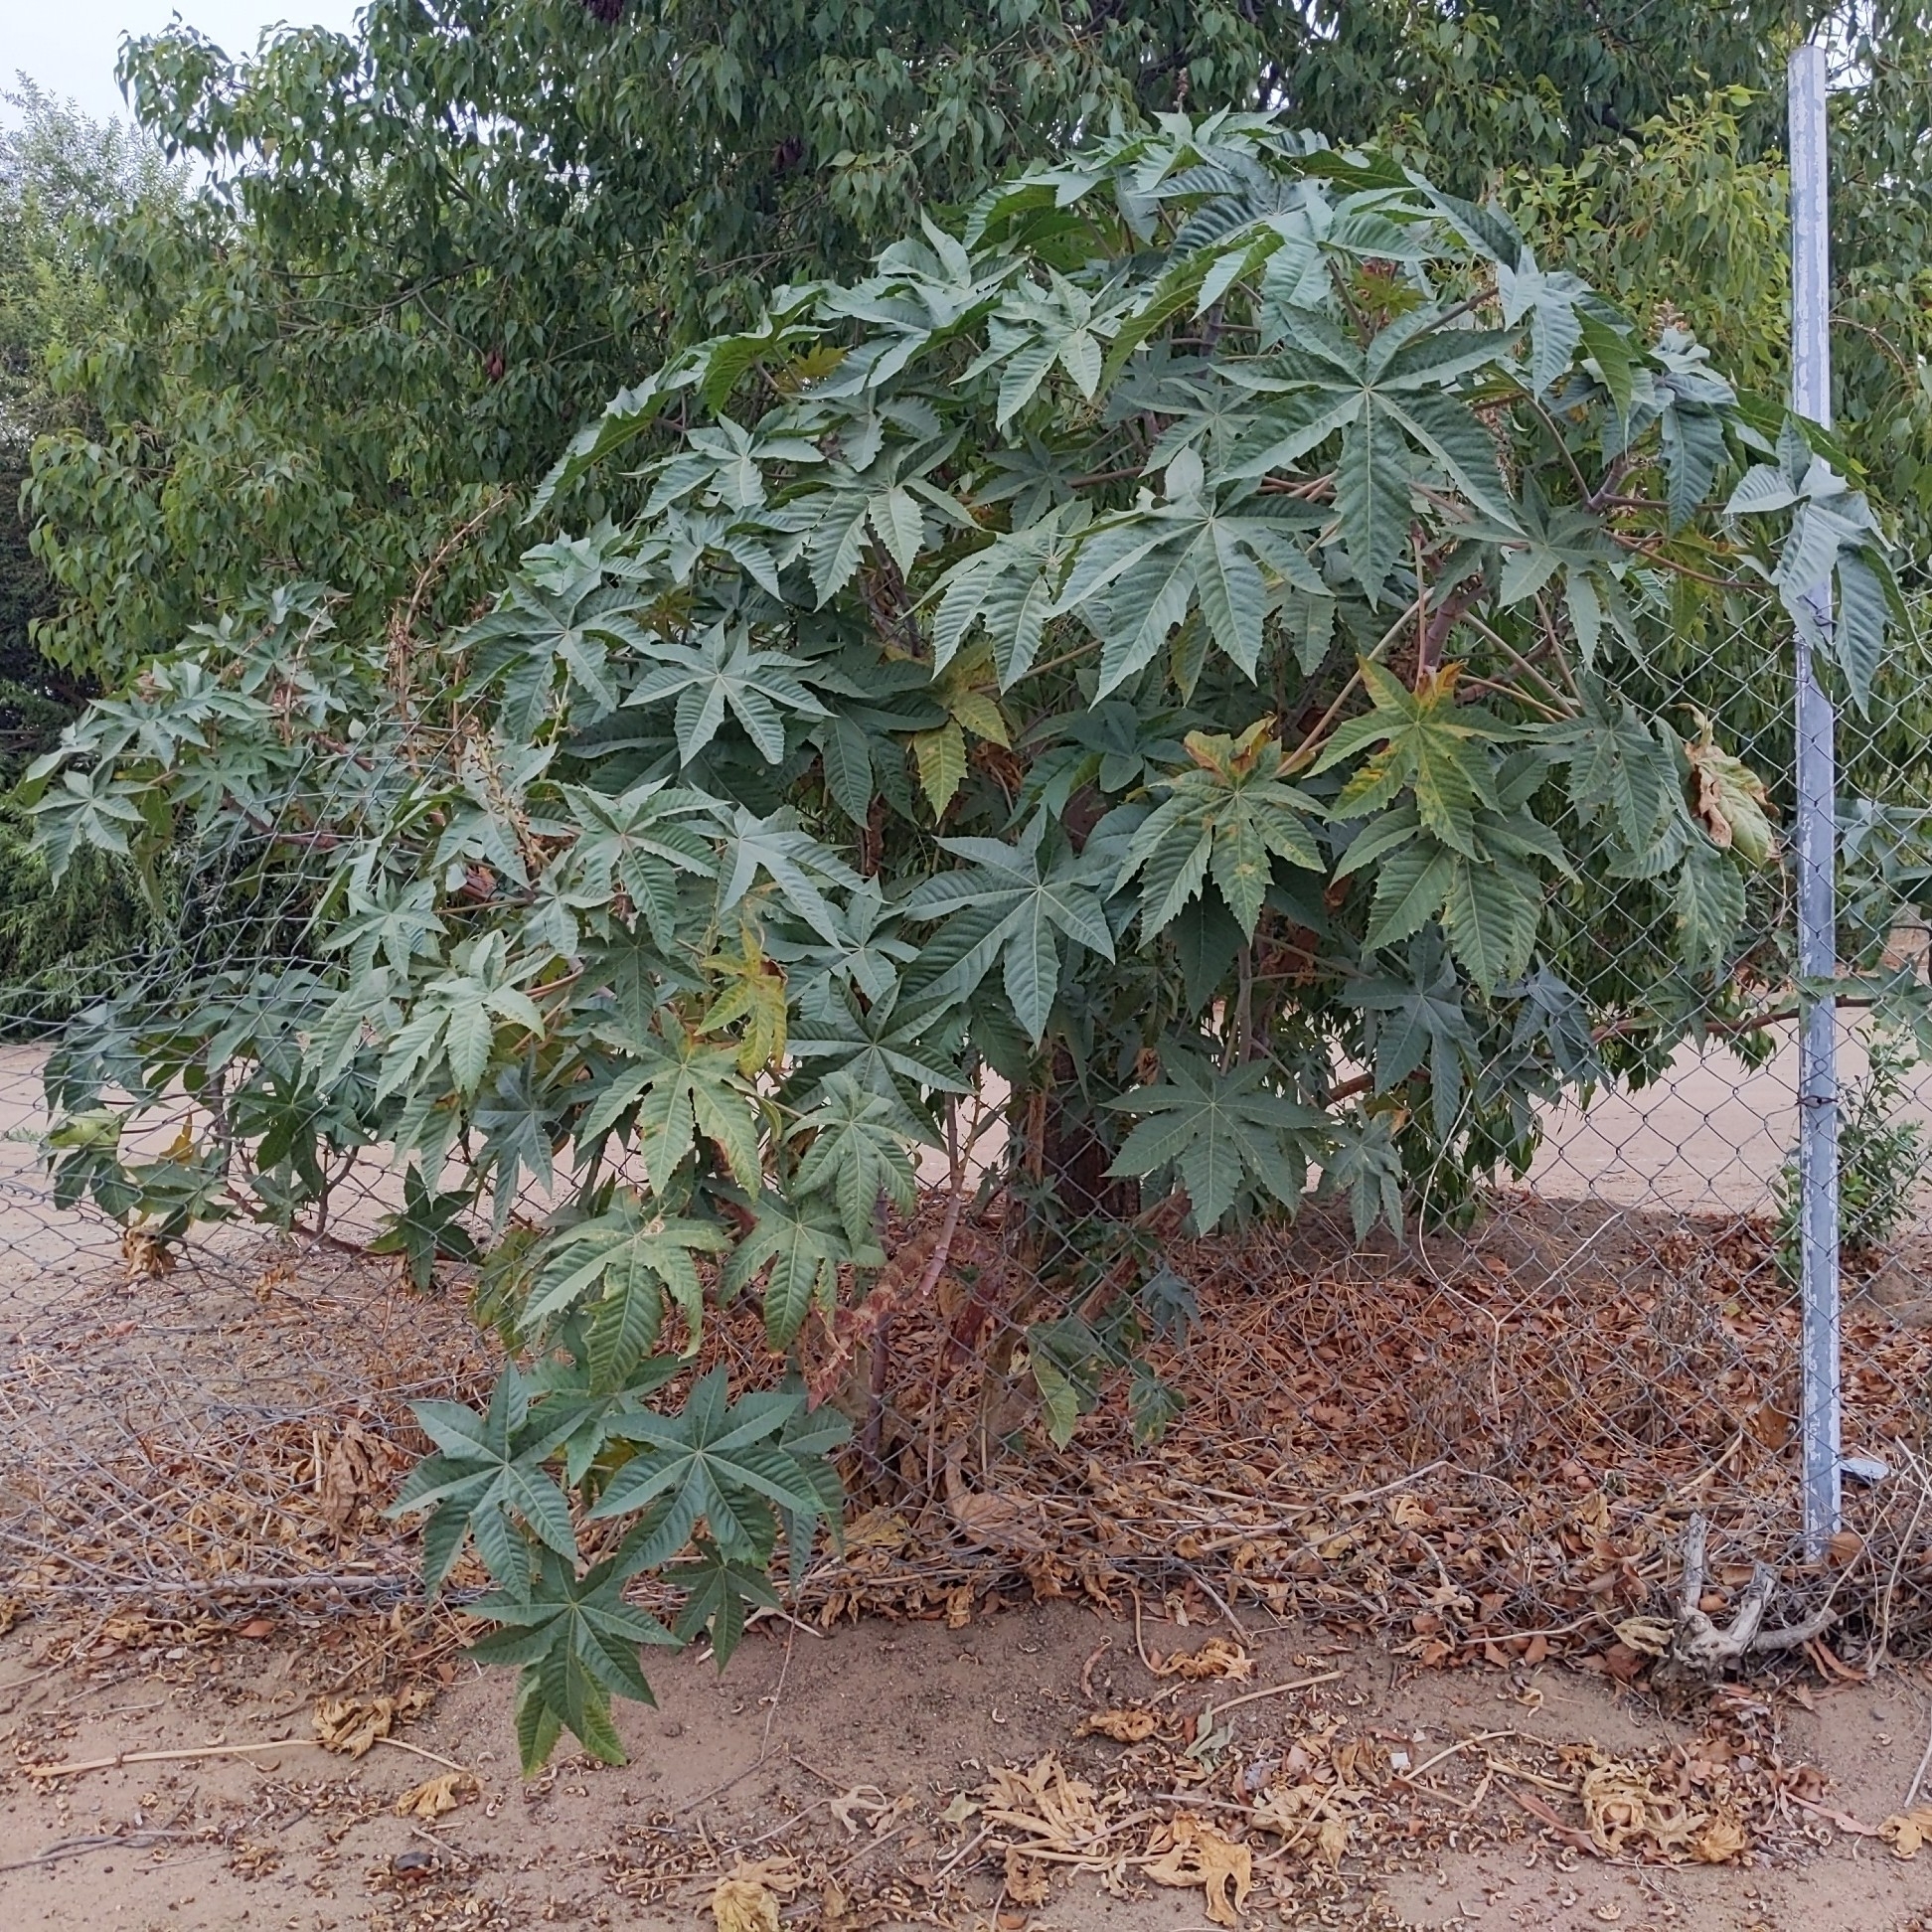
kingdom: Plantae
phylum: Tracheophyta
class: Magnoliopsida
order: Malpighiales
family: Euphorbiaceae
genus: Ricinus
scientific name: Ricinus communis
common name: Castor-oil-plant
